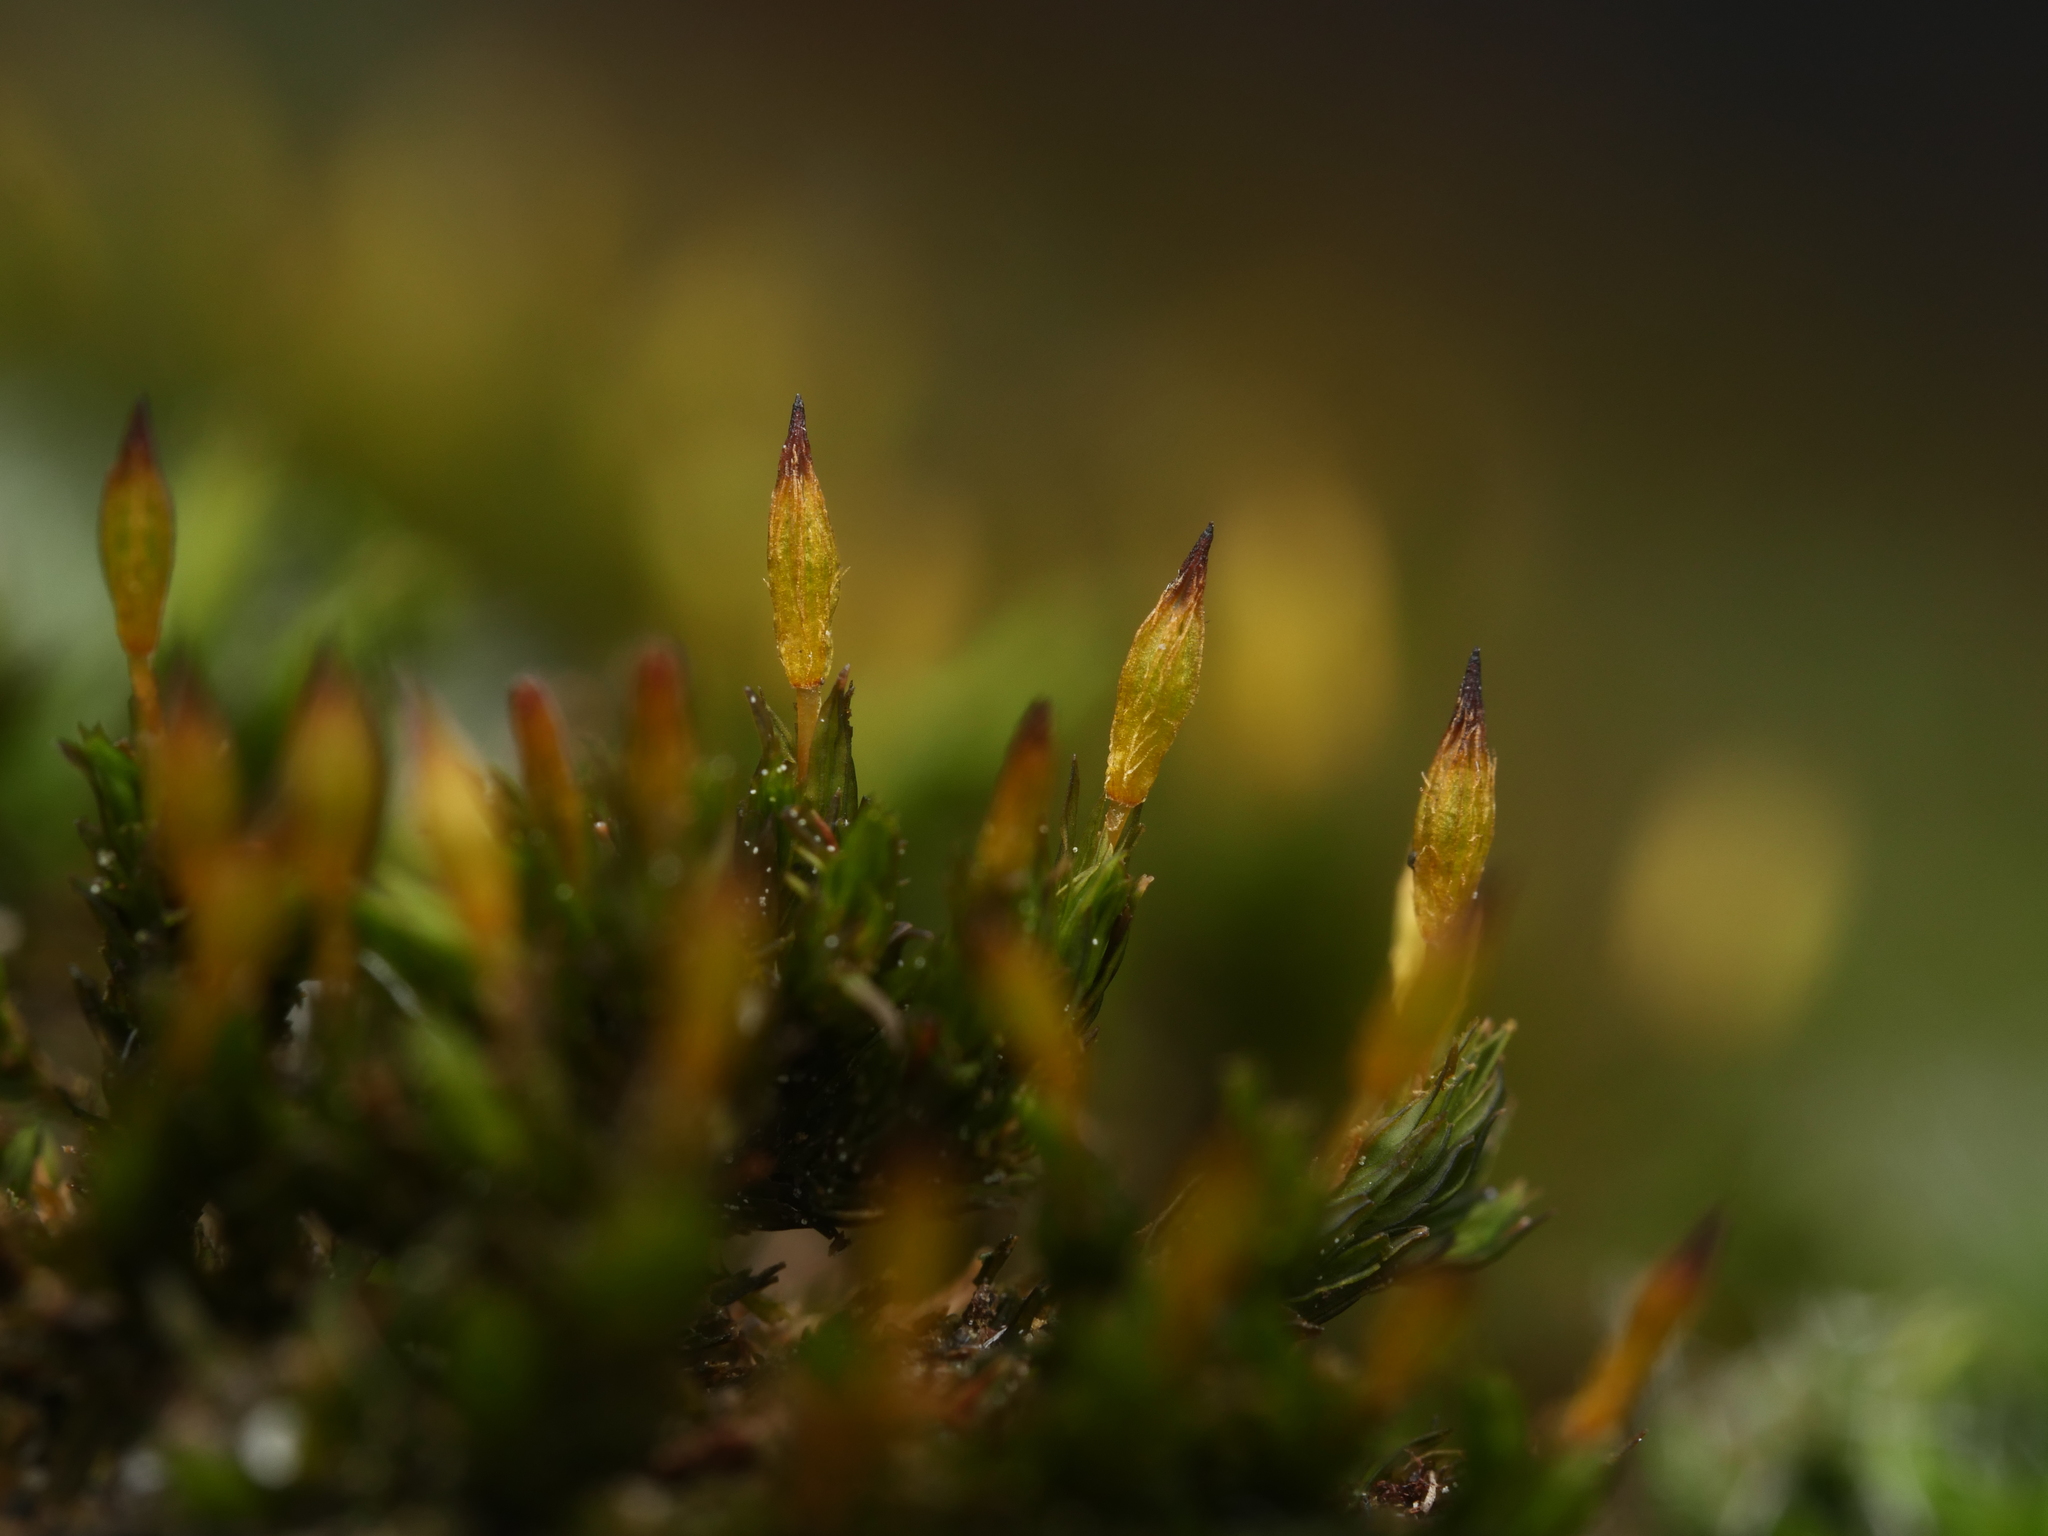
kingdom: Plantae
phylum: Bryophyta
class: Bryopsida
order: Orthotrichales
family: Orthotrichaceae
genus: Orthotrichum
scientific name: Orthotrichum anomalum
